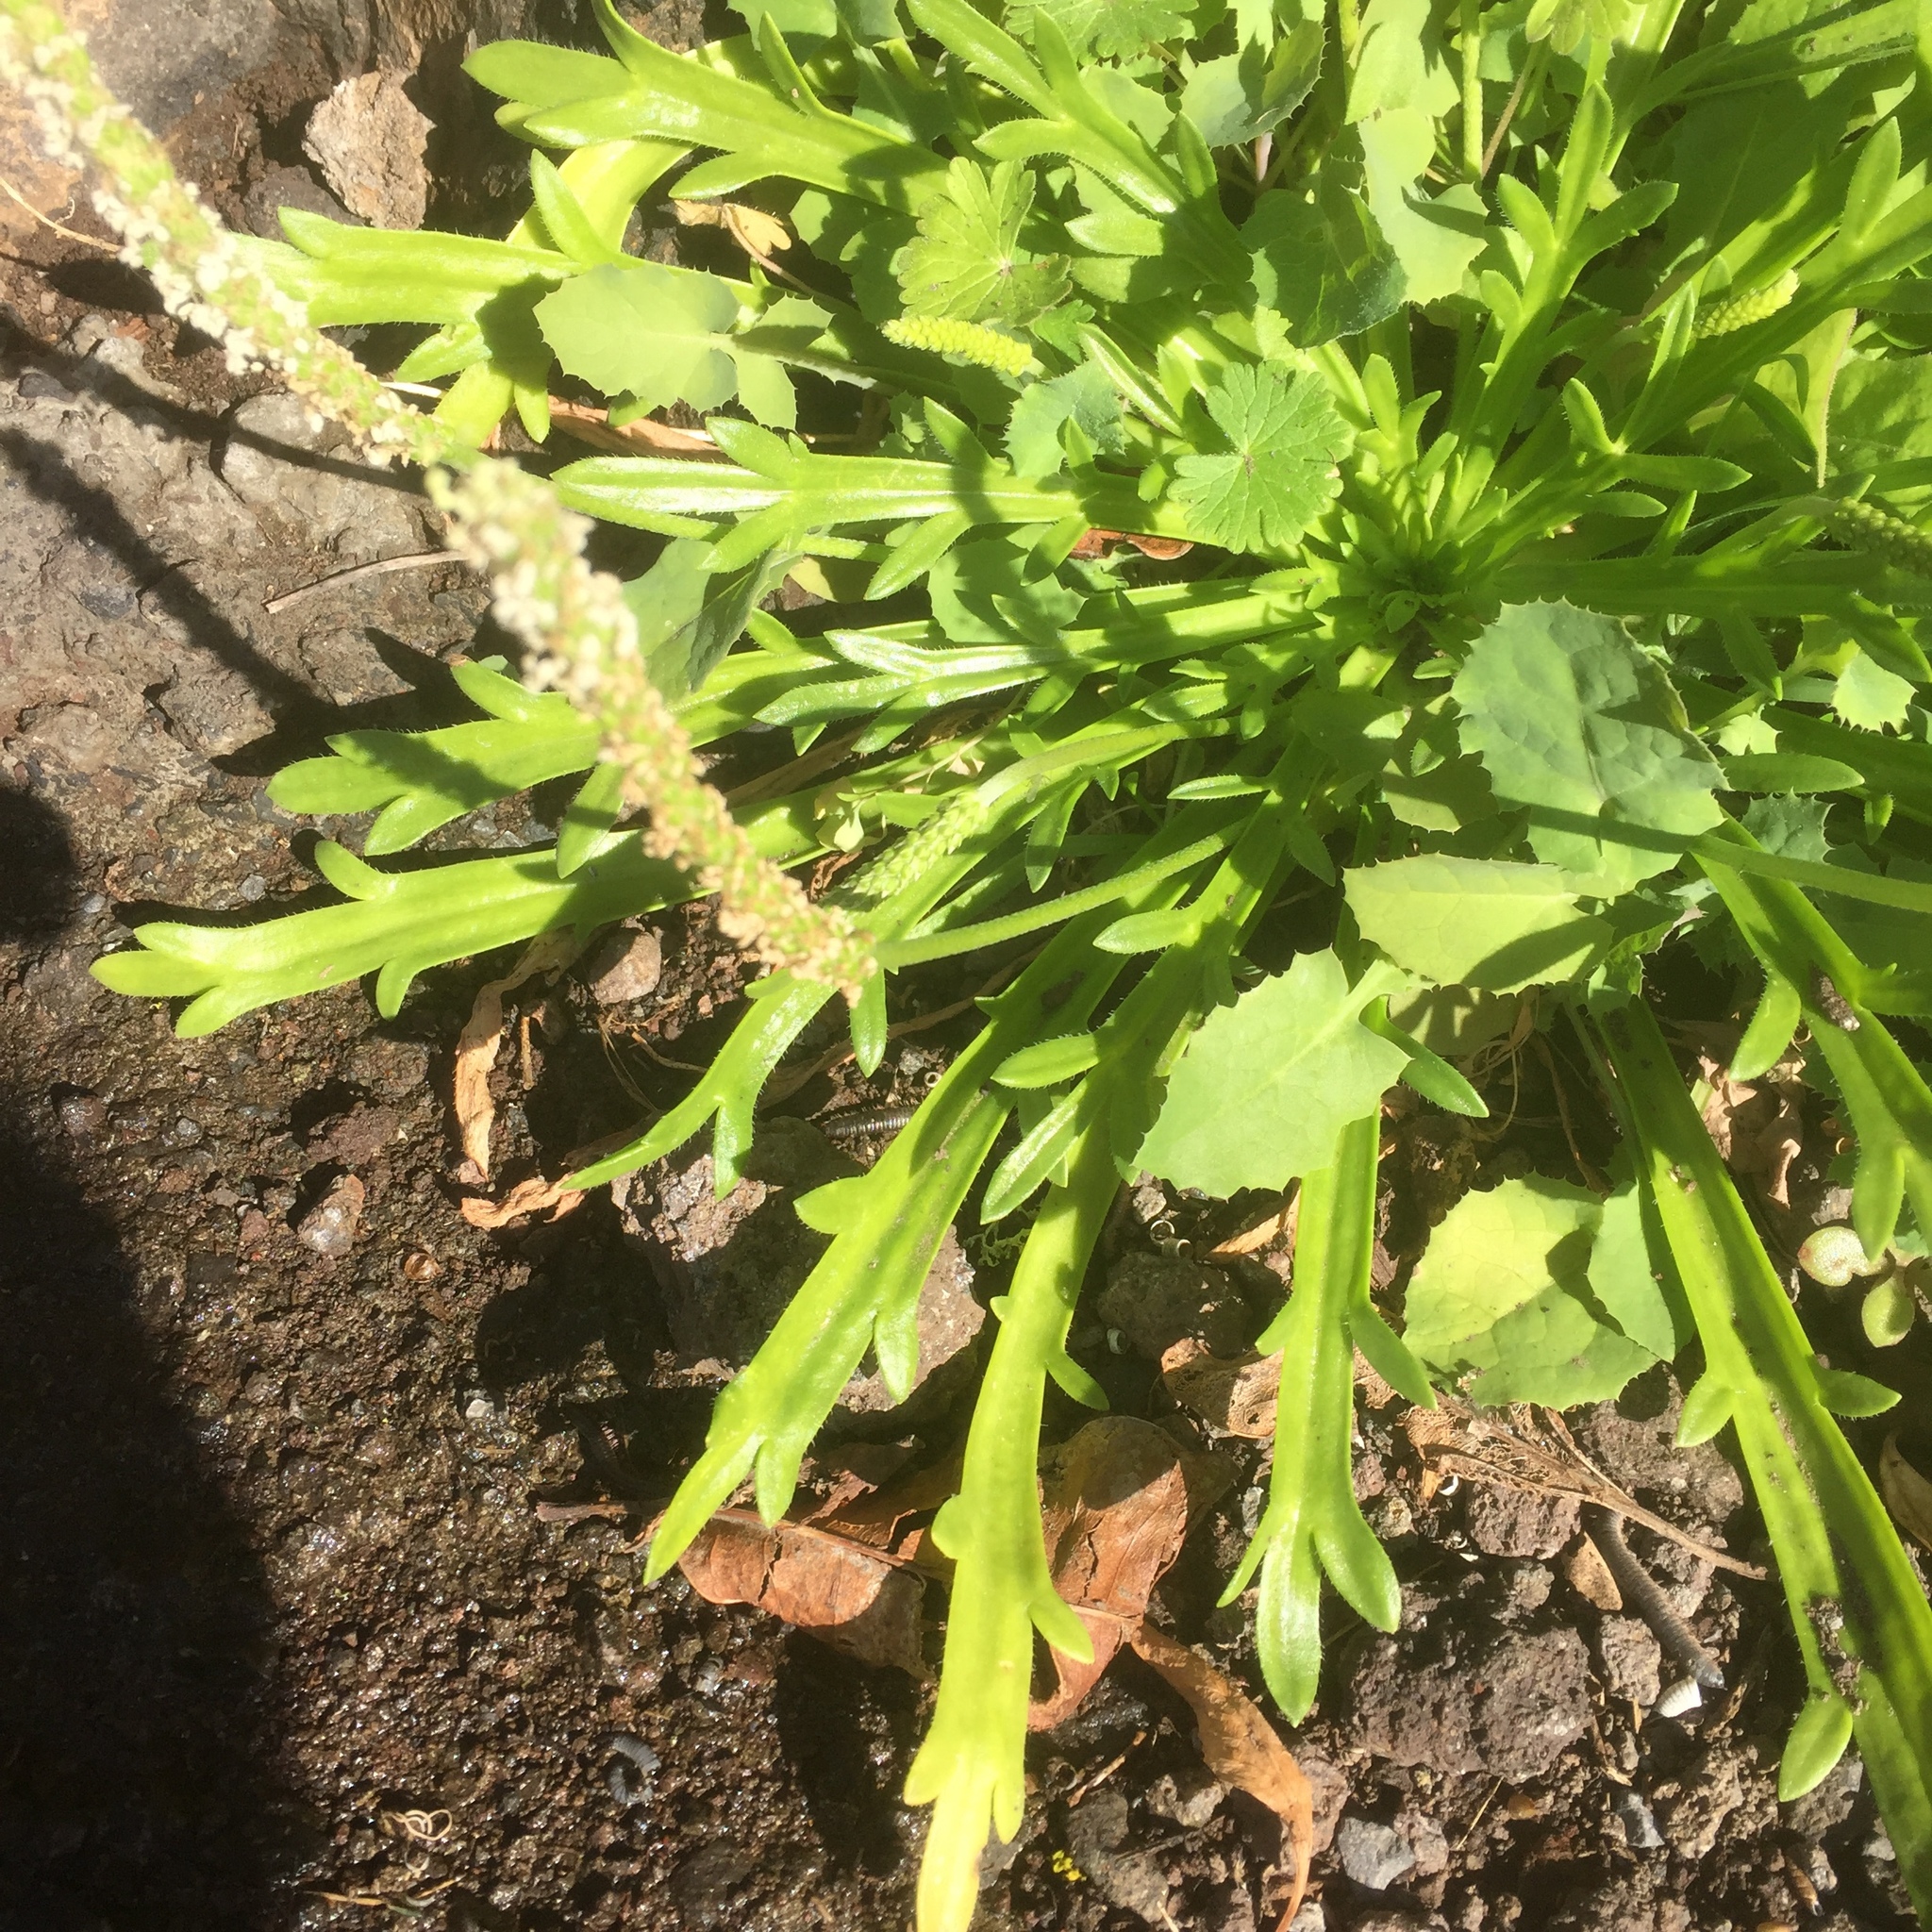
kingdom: Plantae
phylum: Tracheophyta
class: Magnoliopsida
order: Lamiales
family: Plantaginaceae
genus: Plantago
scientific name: Plantago coronopus
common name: Buck's-horn plantain
